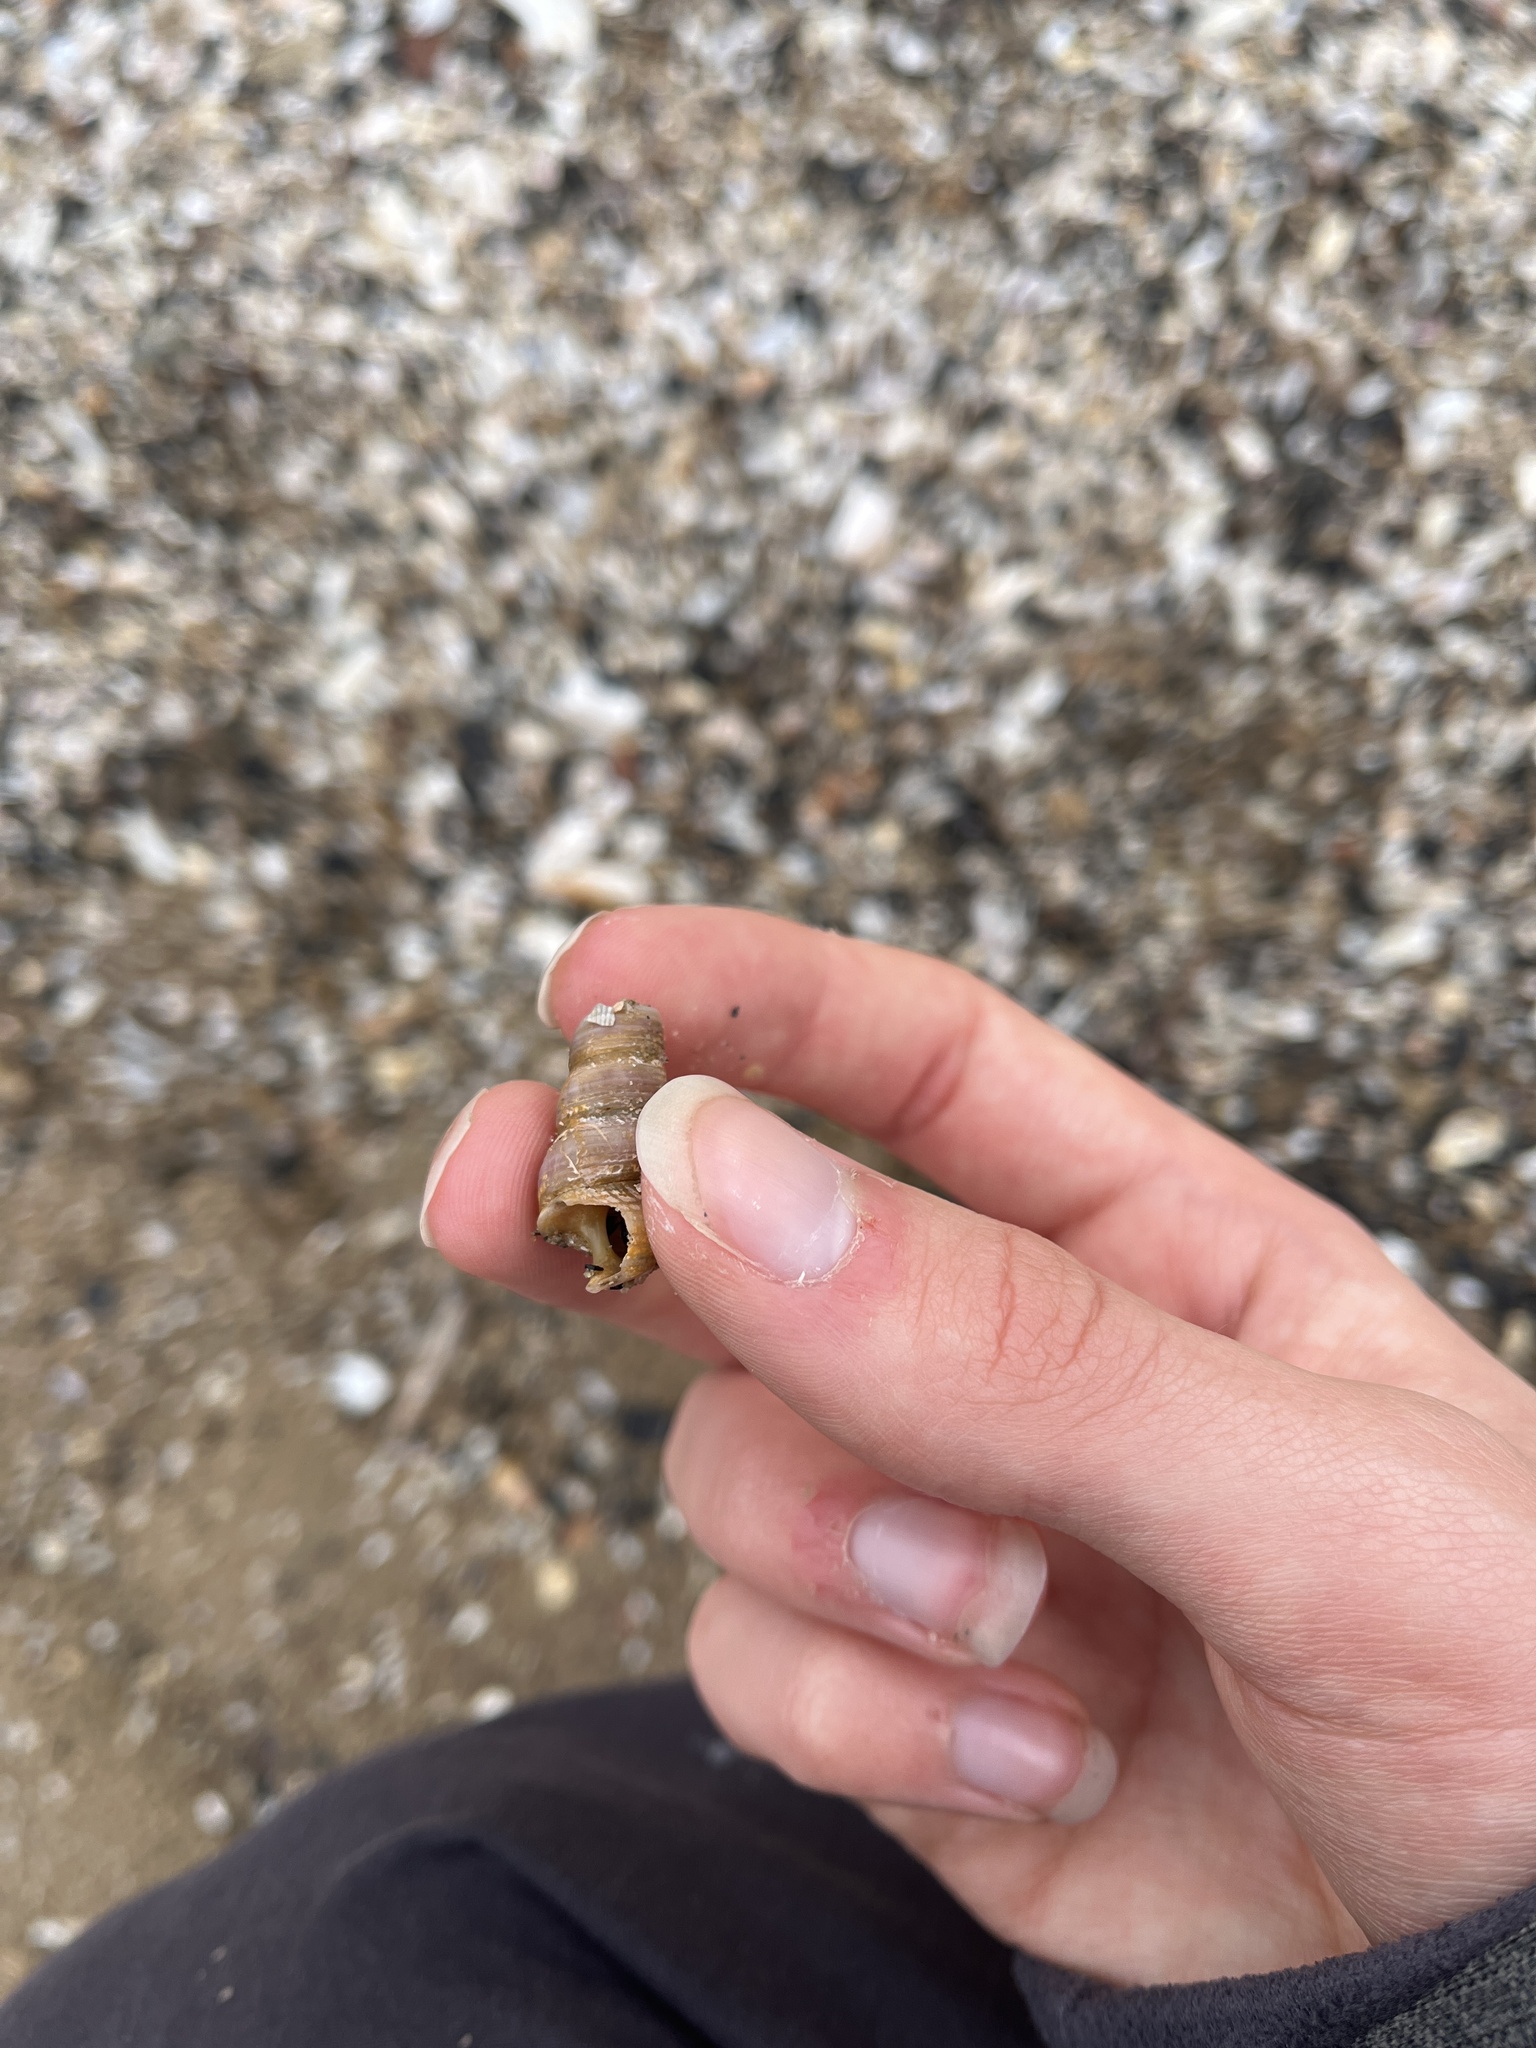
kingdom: Animalia
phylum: Mollusca
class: Gastropoda
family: Turritellidae
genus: Turritellinella
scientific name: Turritellinella tricarinata
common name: Auger shell
